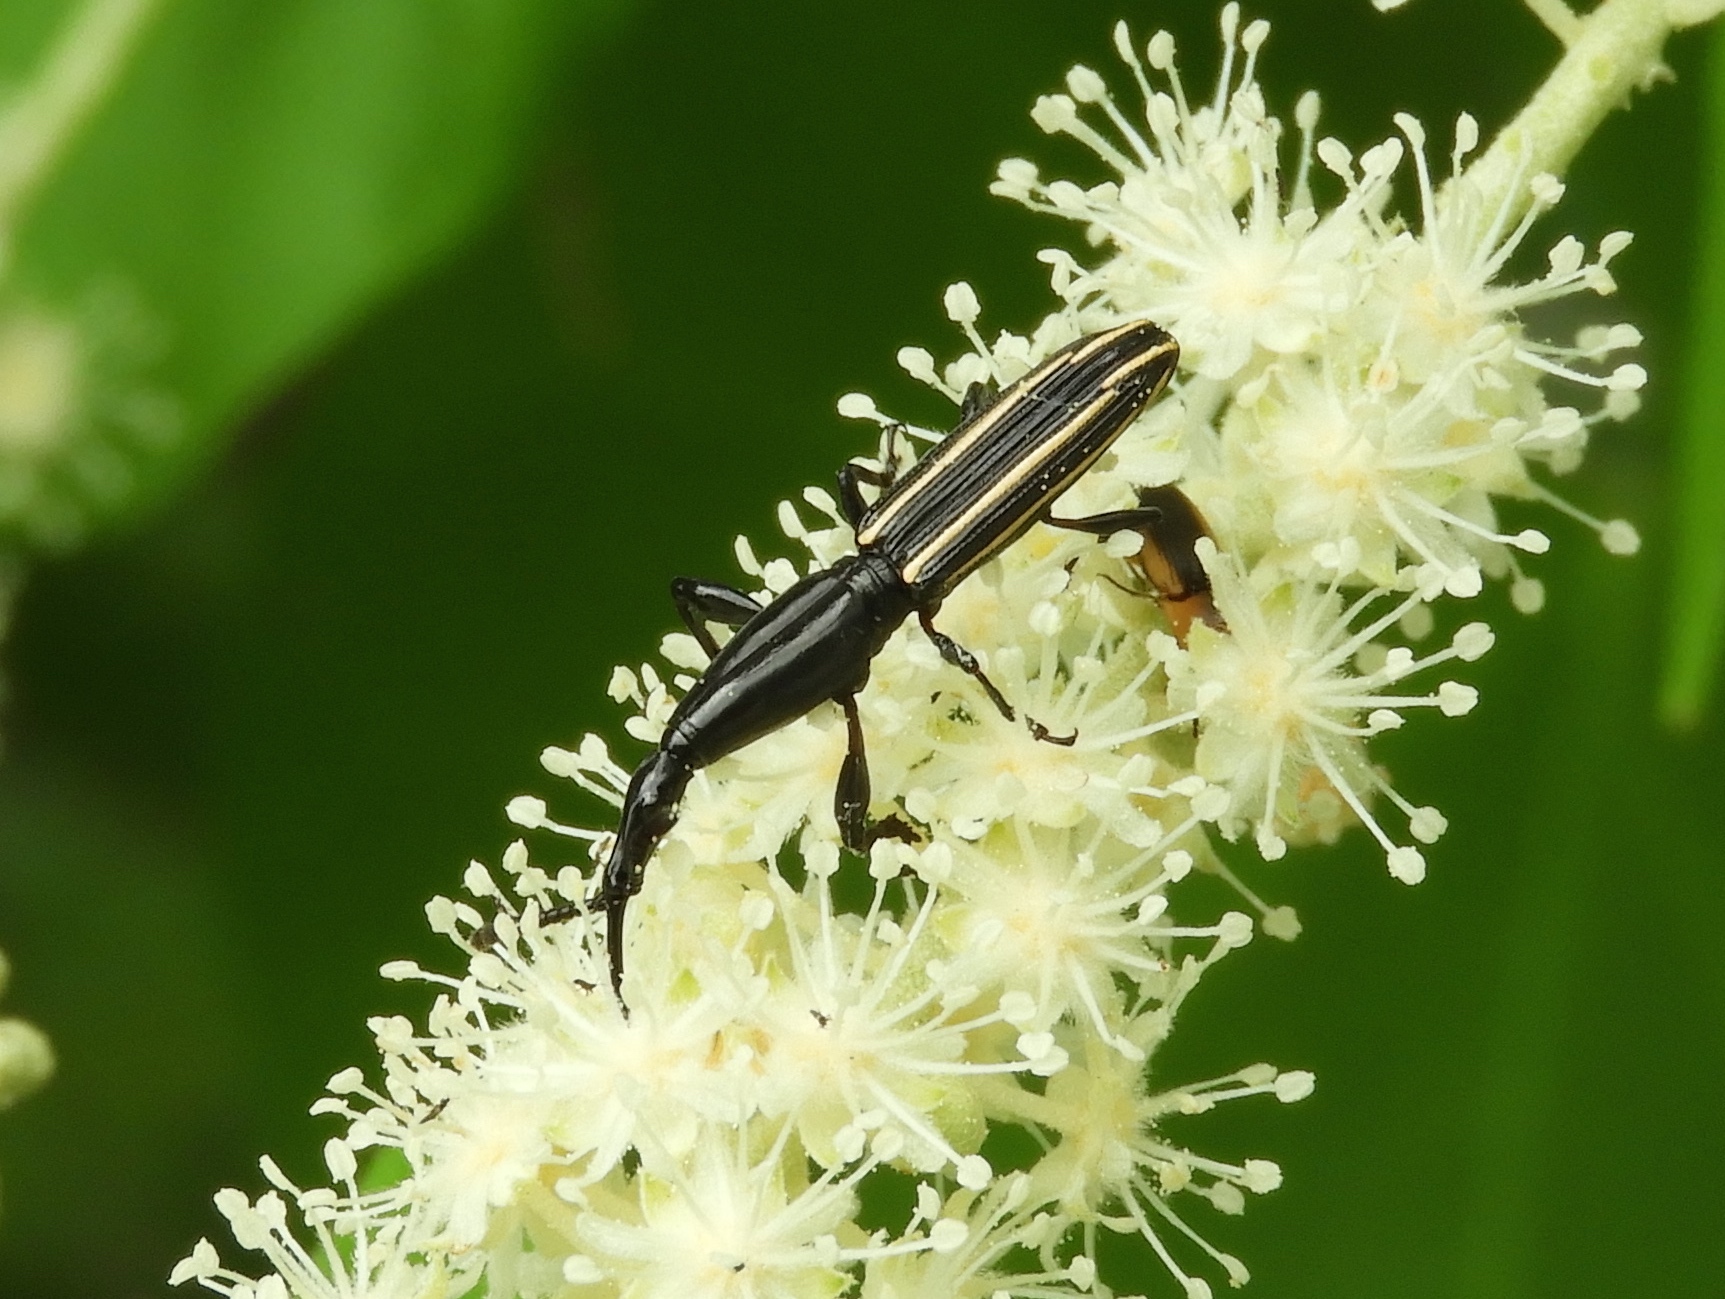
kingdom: Animalia
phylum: Arthropoda
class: Insecta
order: Coleoptera
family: Brentidae
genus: Brentus
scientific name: Brentus
